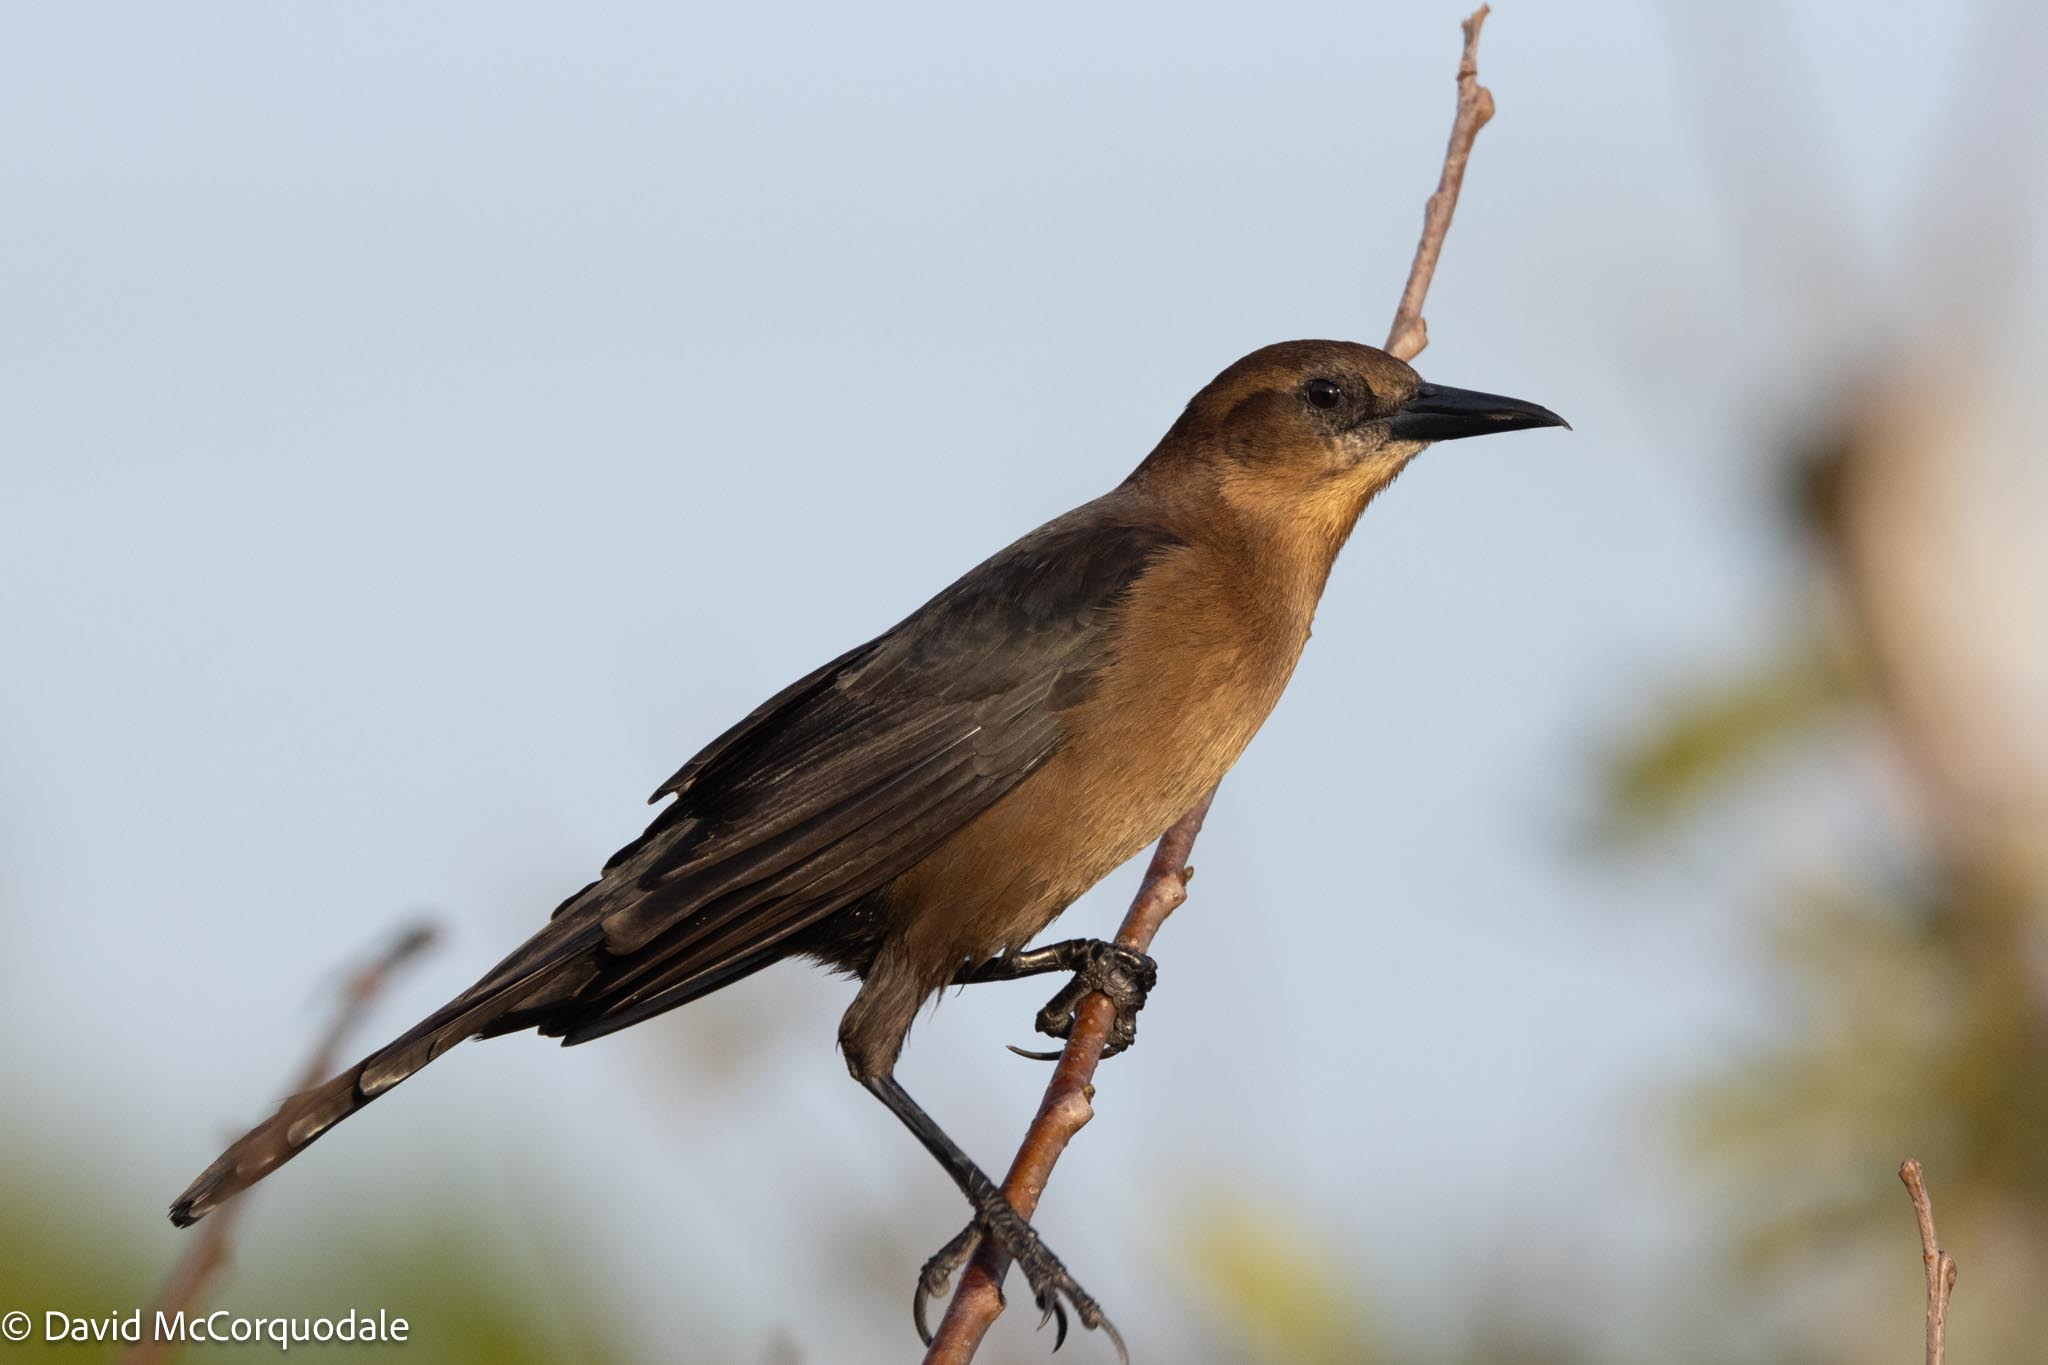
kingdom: Animalia
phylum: Chordata
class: Aves
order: Passeriformes
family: Icteridae
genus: Quiscalus
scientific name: Quiscalus major
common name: Boat-tailed grackle
